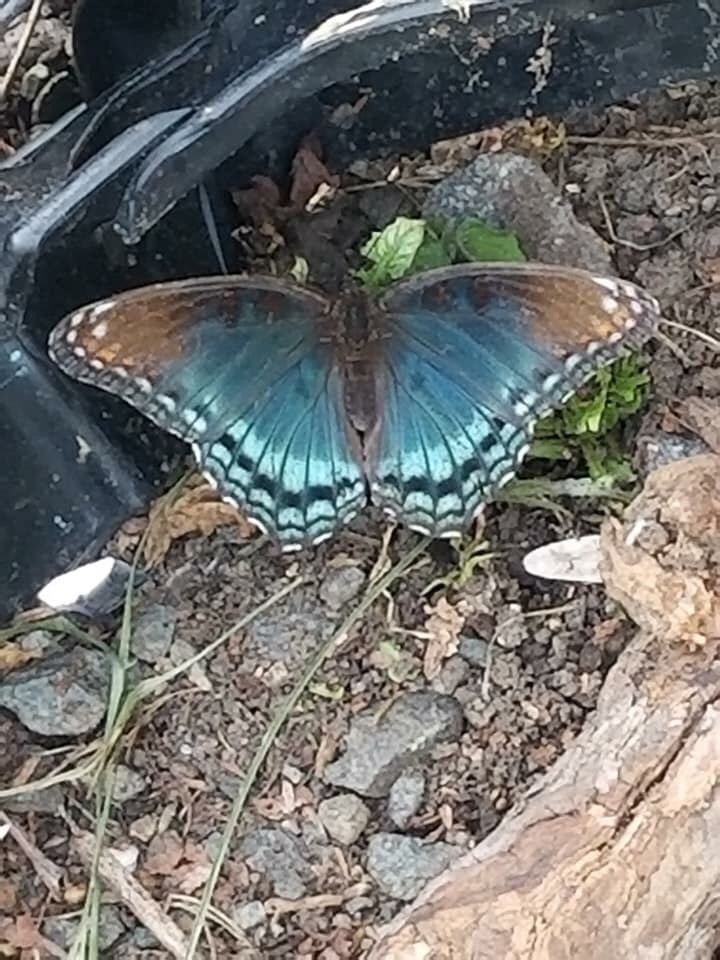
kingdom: Animalia
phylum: Arthropoda
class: Insecta
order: Lepidoptera
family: Nymphalidae
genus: Limenitis
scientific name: Limenitis arthemis
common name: Red-spotted admiral
